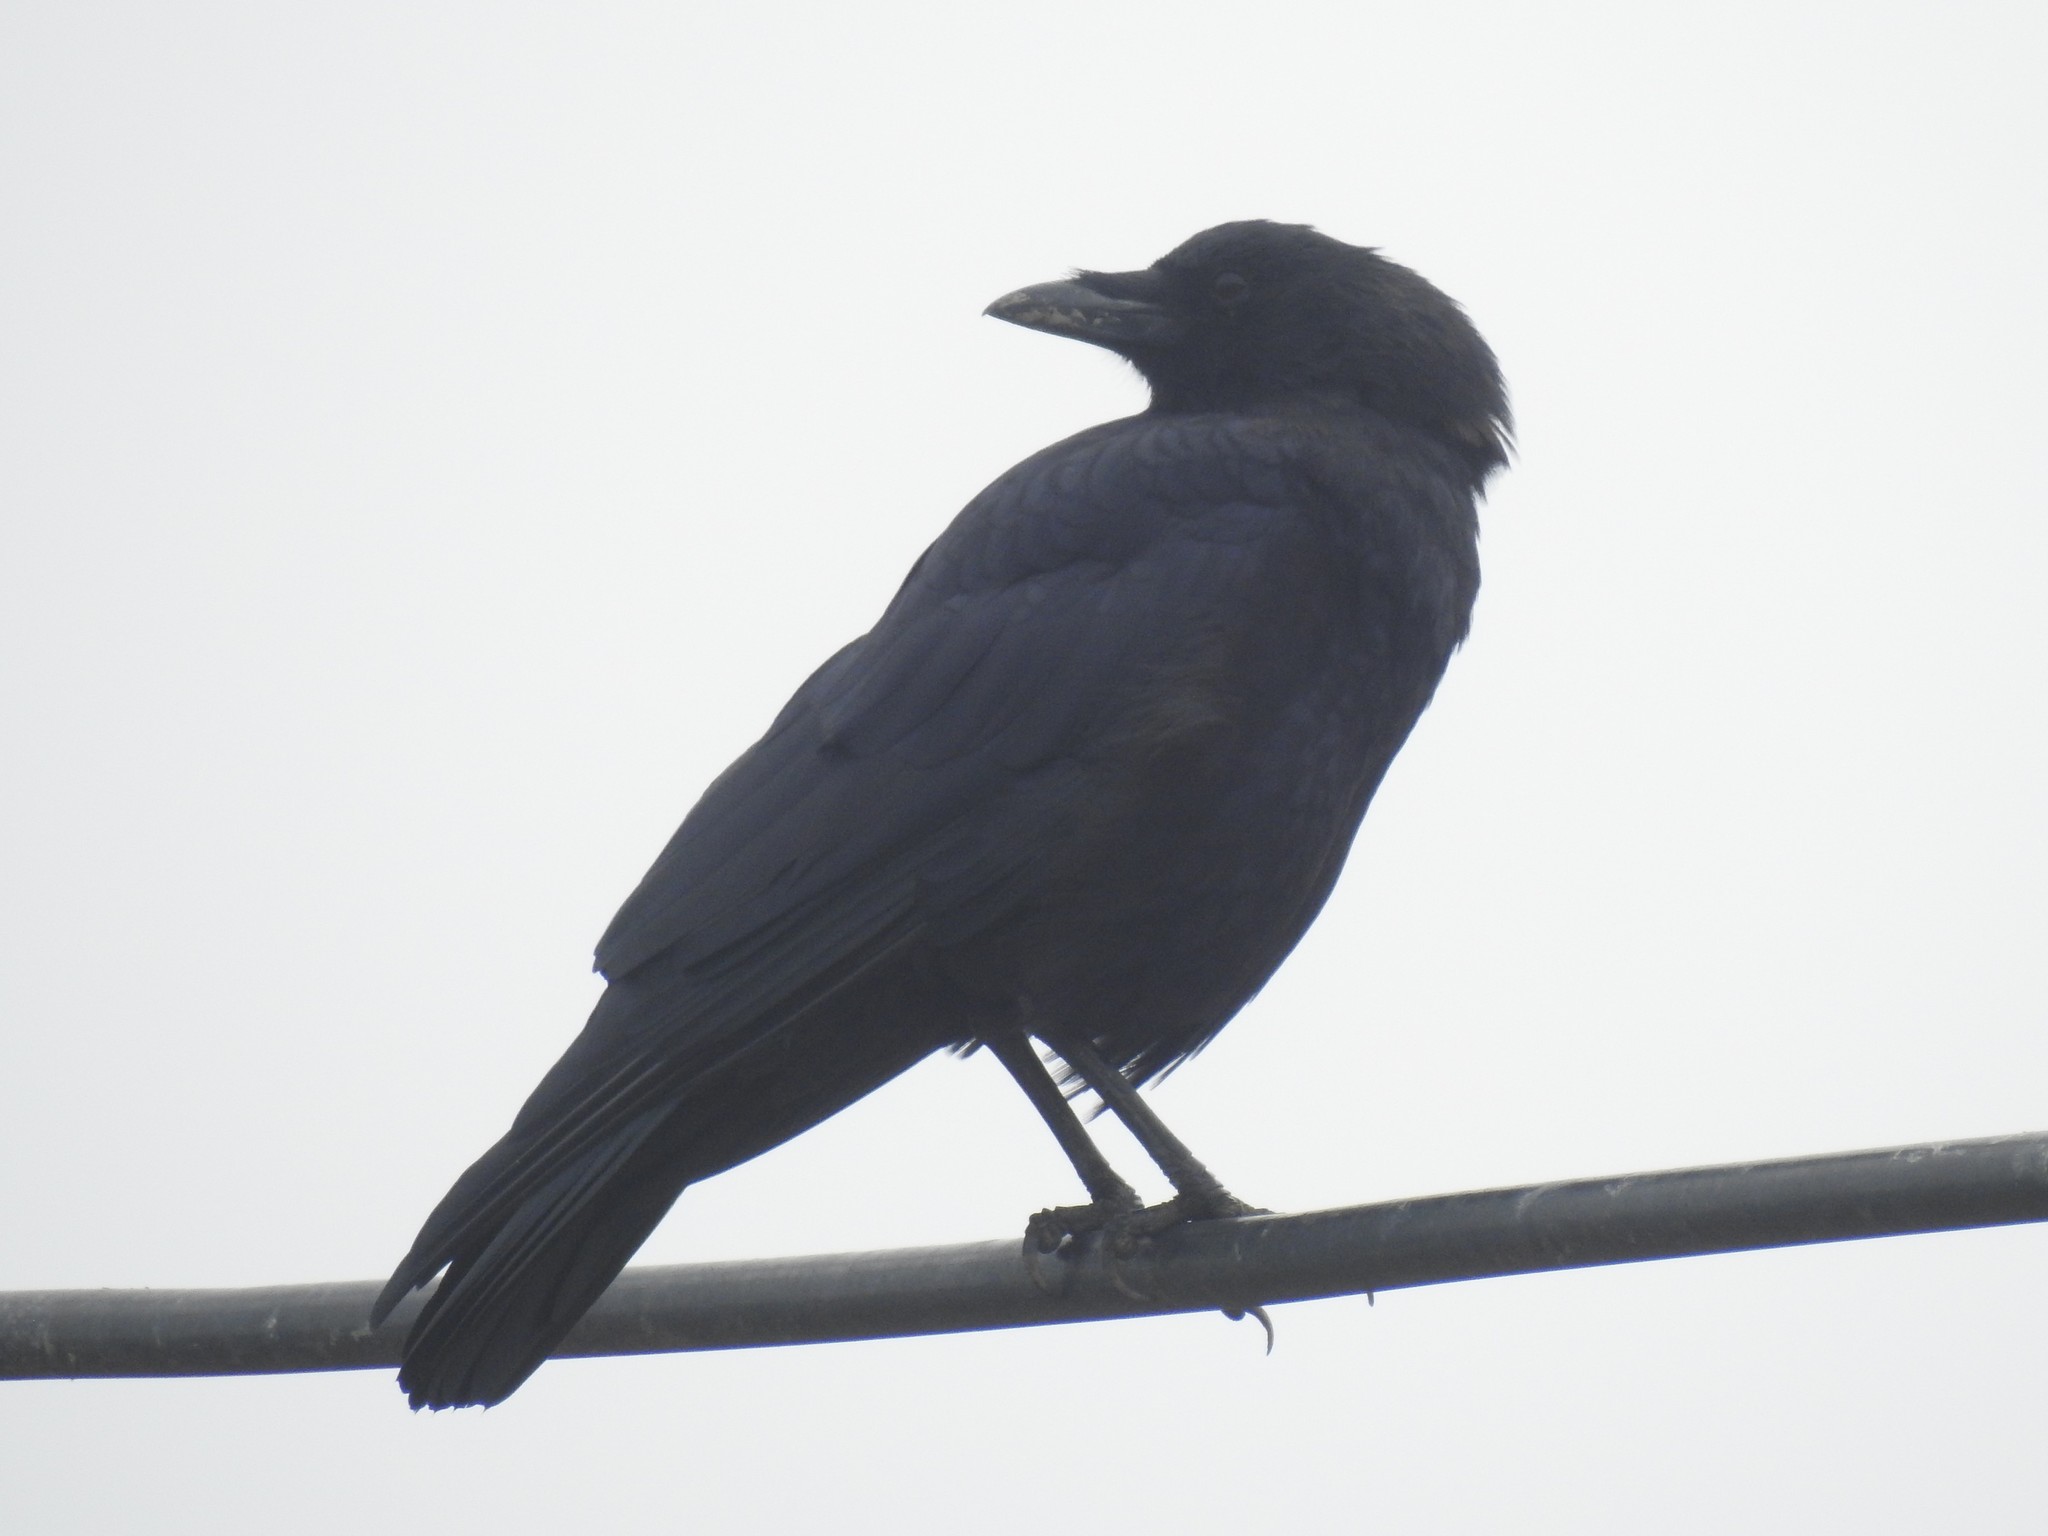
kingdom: Animalia
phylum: Chordata
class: Aves
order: Passeriformes
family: Corvidae
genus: Corvus
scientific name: Corvus brachyrhynchos
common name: American crow
